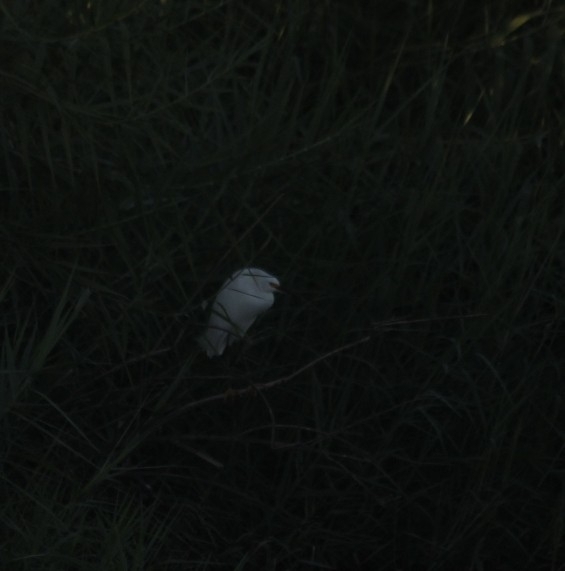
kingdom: Animalia
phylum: Chordata
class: Aves
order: Pelecaniformes
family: Ardeidae
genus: Egretta
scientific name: Egretta thula
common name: Snowy egret
